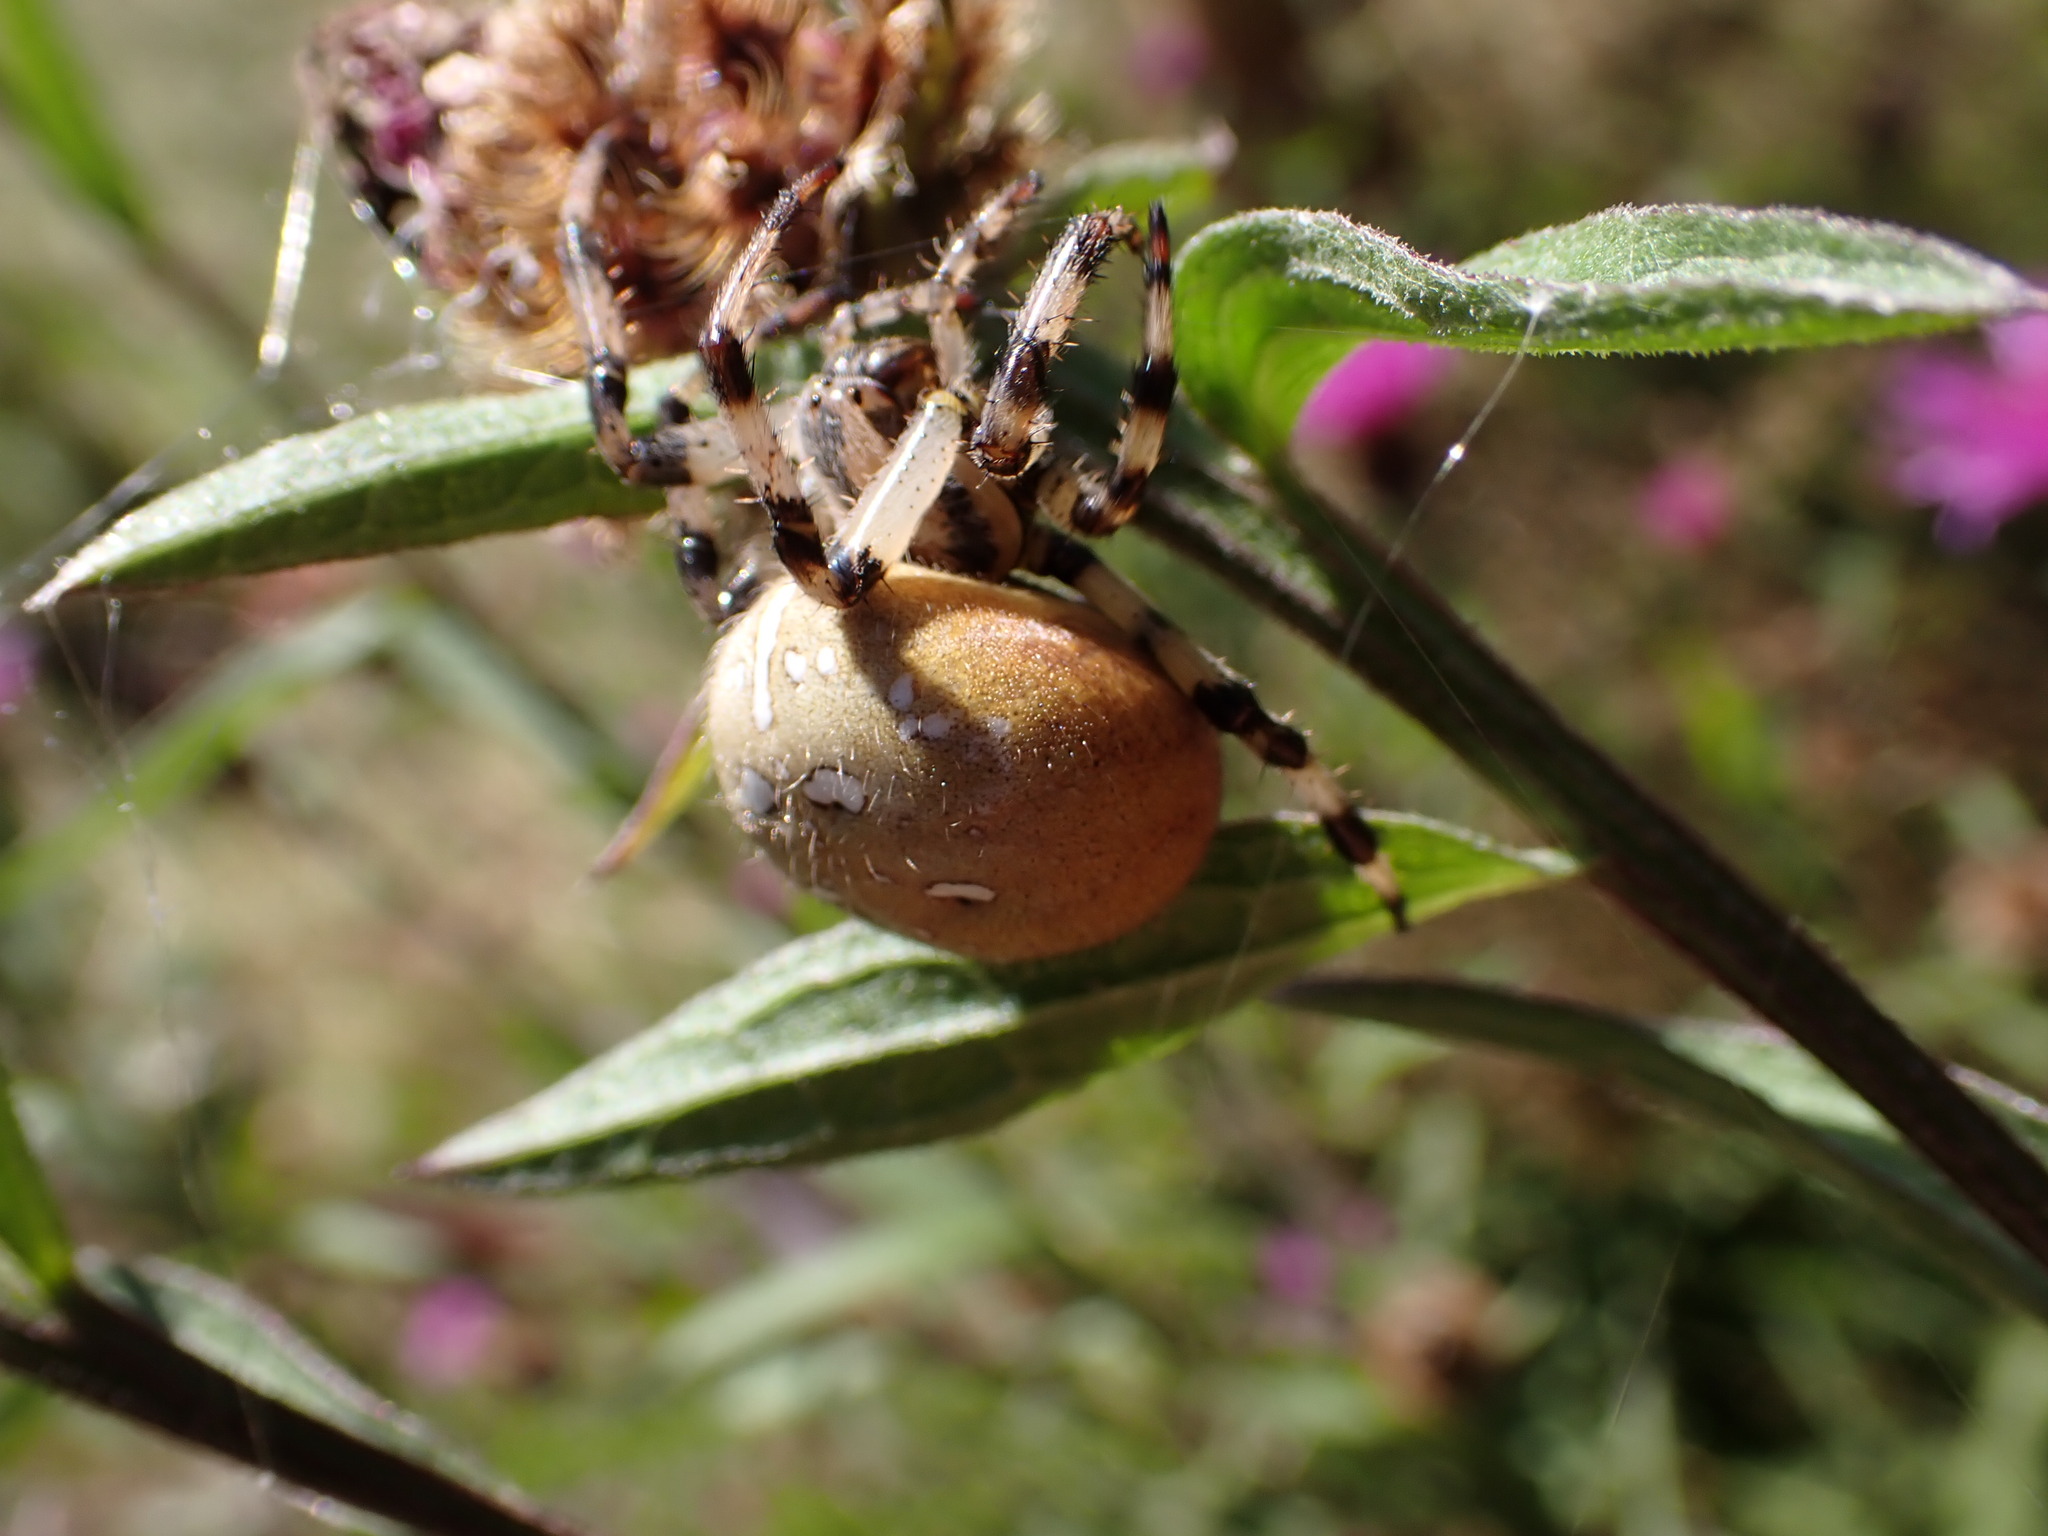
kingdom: Animalia
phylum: Arthropoda
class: Arachnida
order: Araneae
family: Araneidae
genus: Araneus
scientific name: Araneus quadratus
